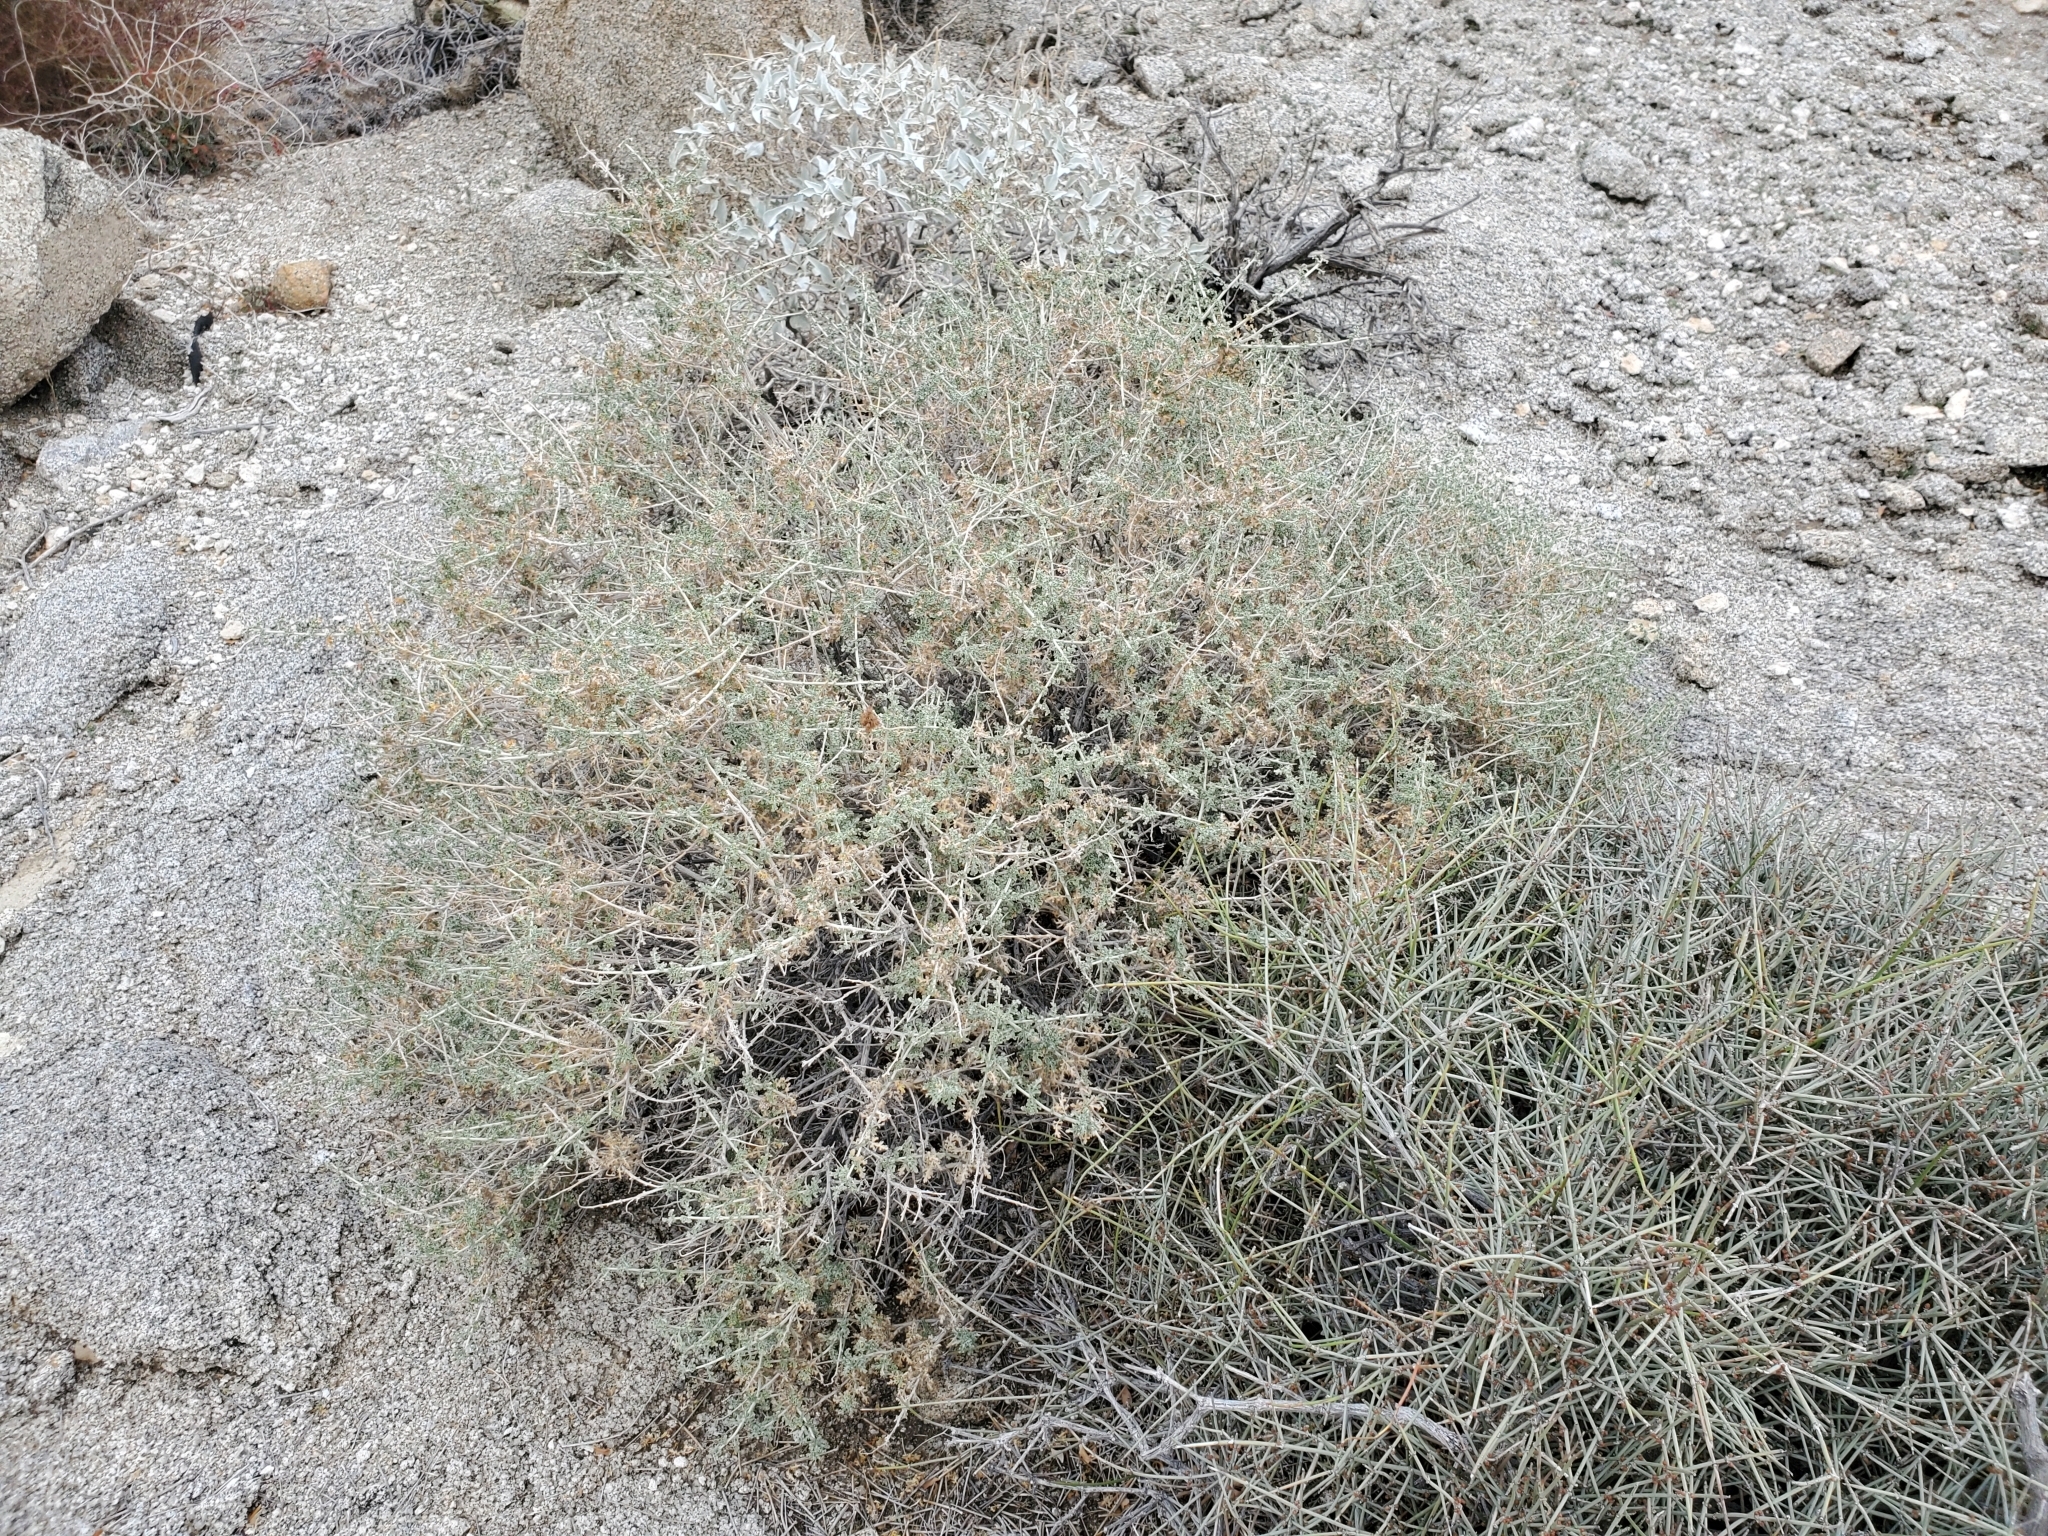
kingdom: Plantae
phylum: Tracheophyta
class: Magnoliopsida
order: Asterales
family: Asteraceae
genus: Ambrosia
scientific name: Ambrosia dumosa
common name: Bur-sage
